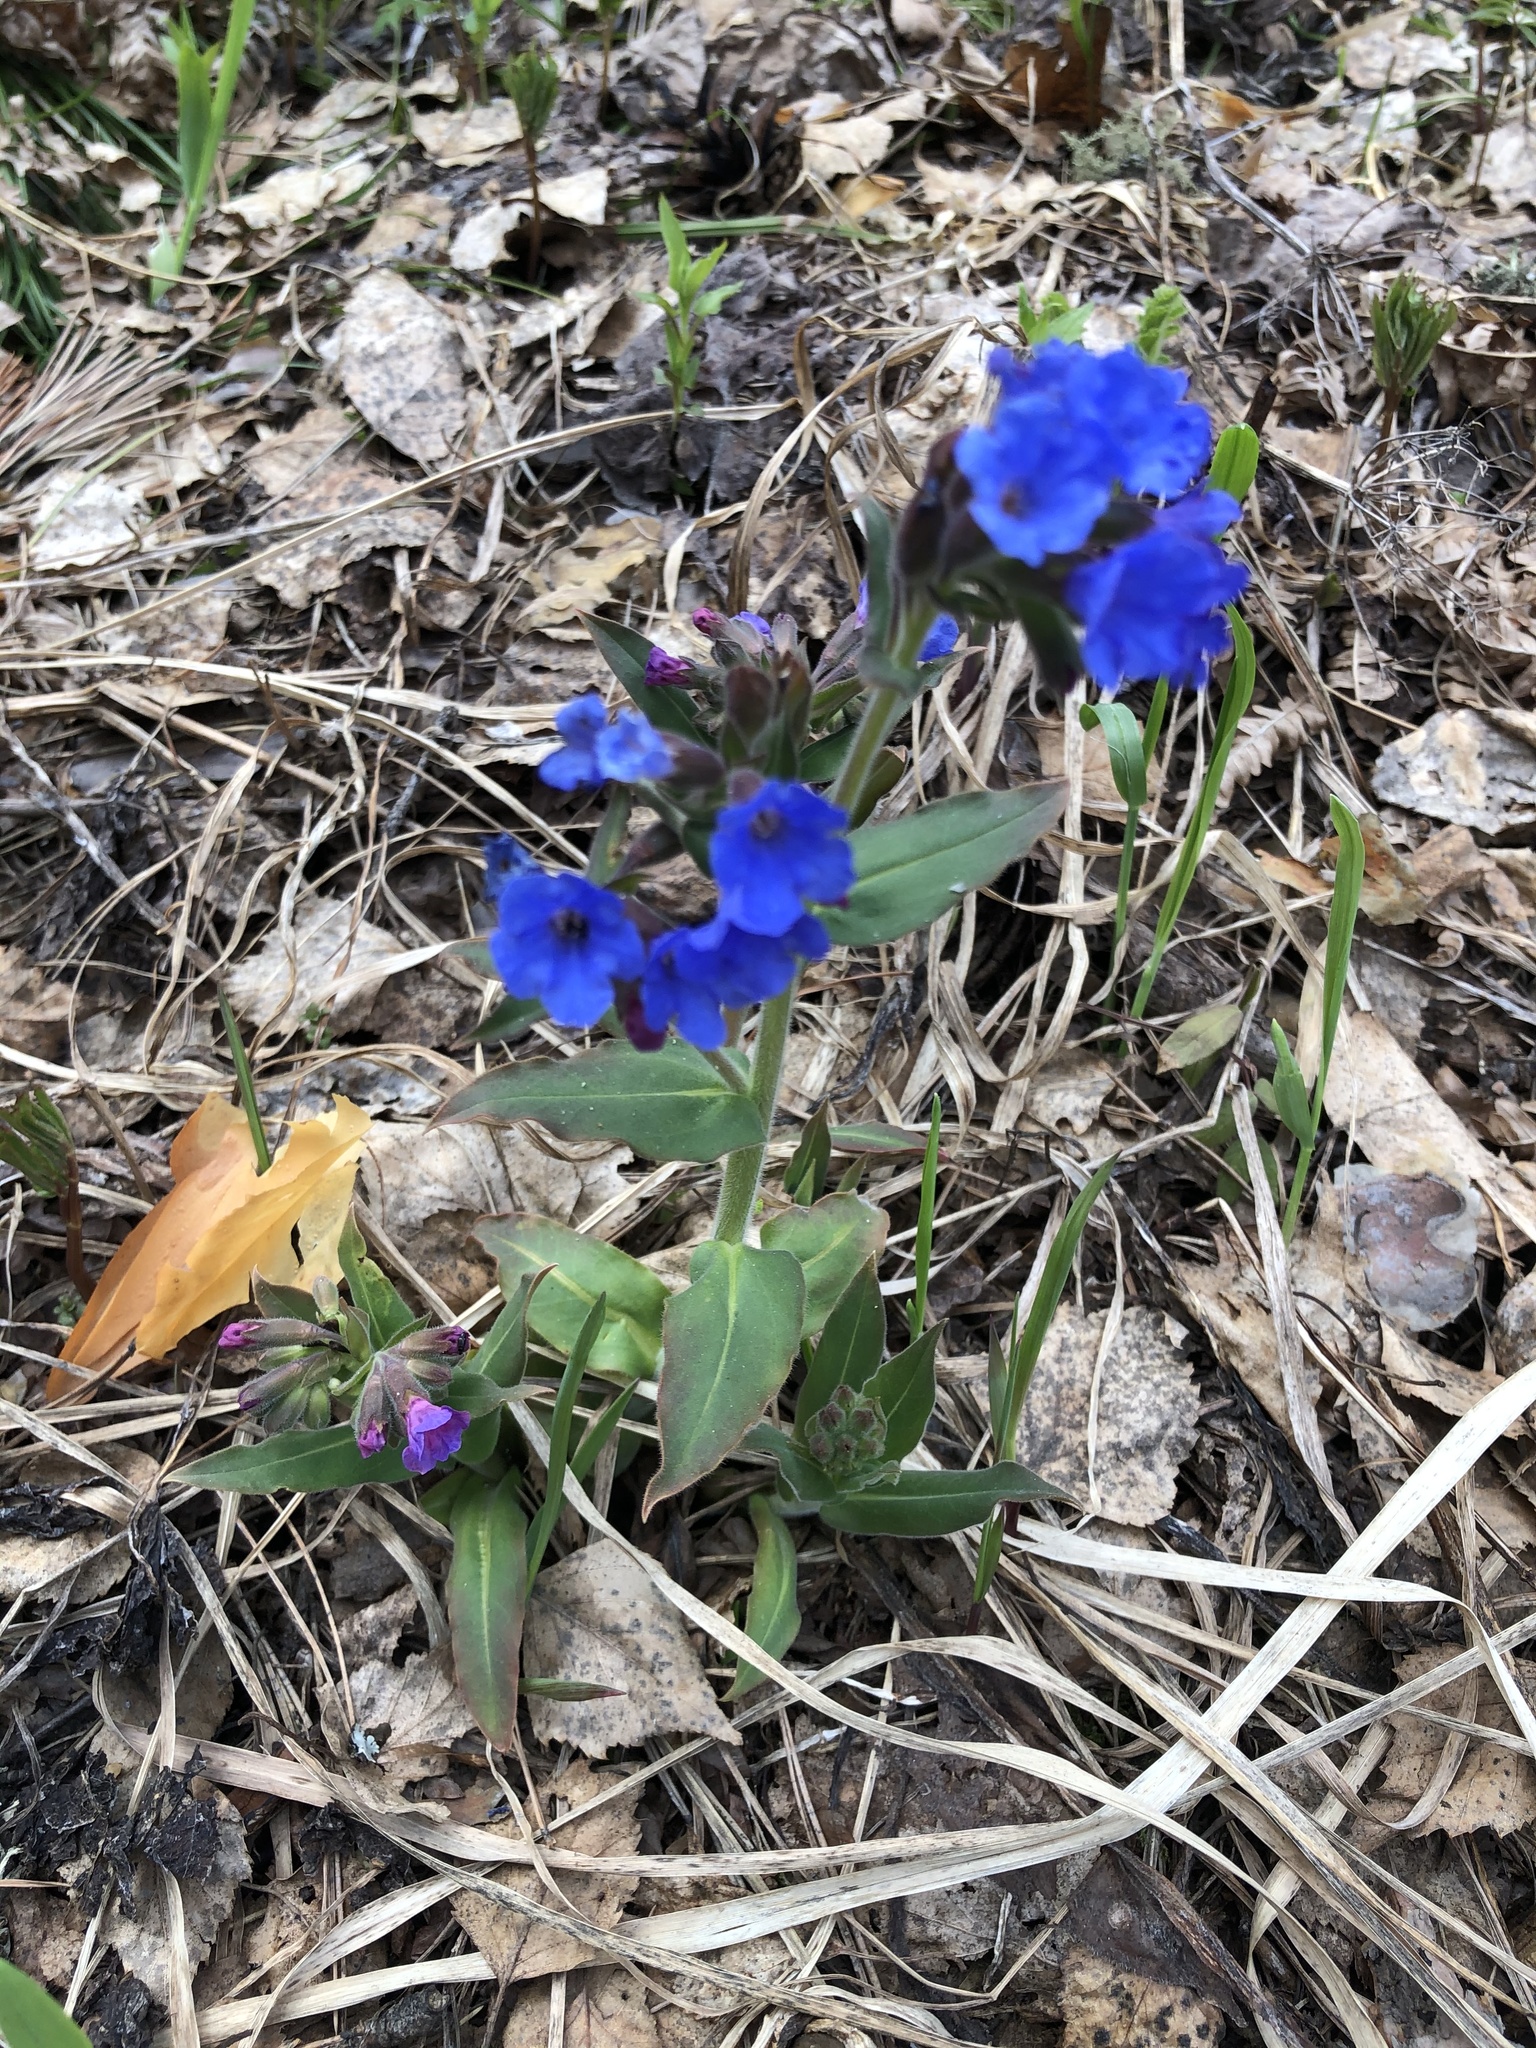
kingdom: Plantae
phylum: Tracheophyta
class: Magnoliopsida
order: Boraginales
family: Boraginaceae
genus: Pulmonaria
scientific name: Pulmonaria mollis
